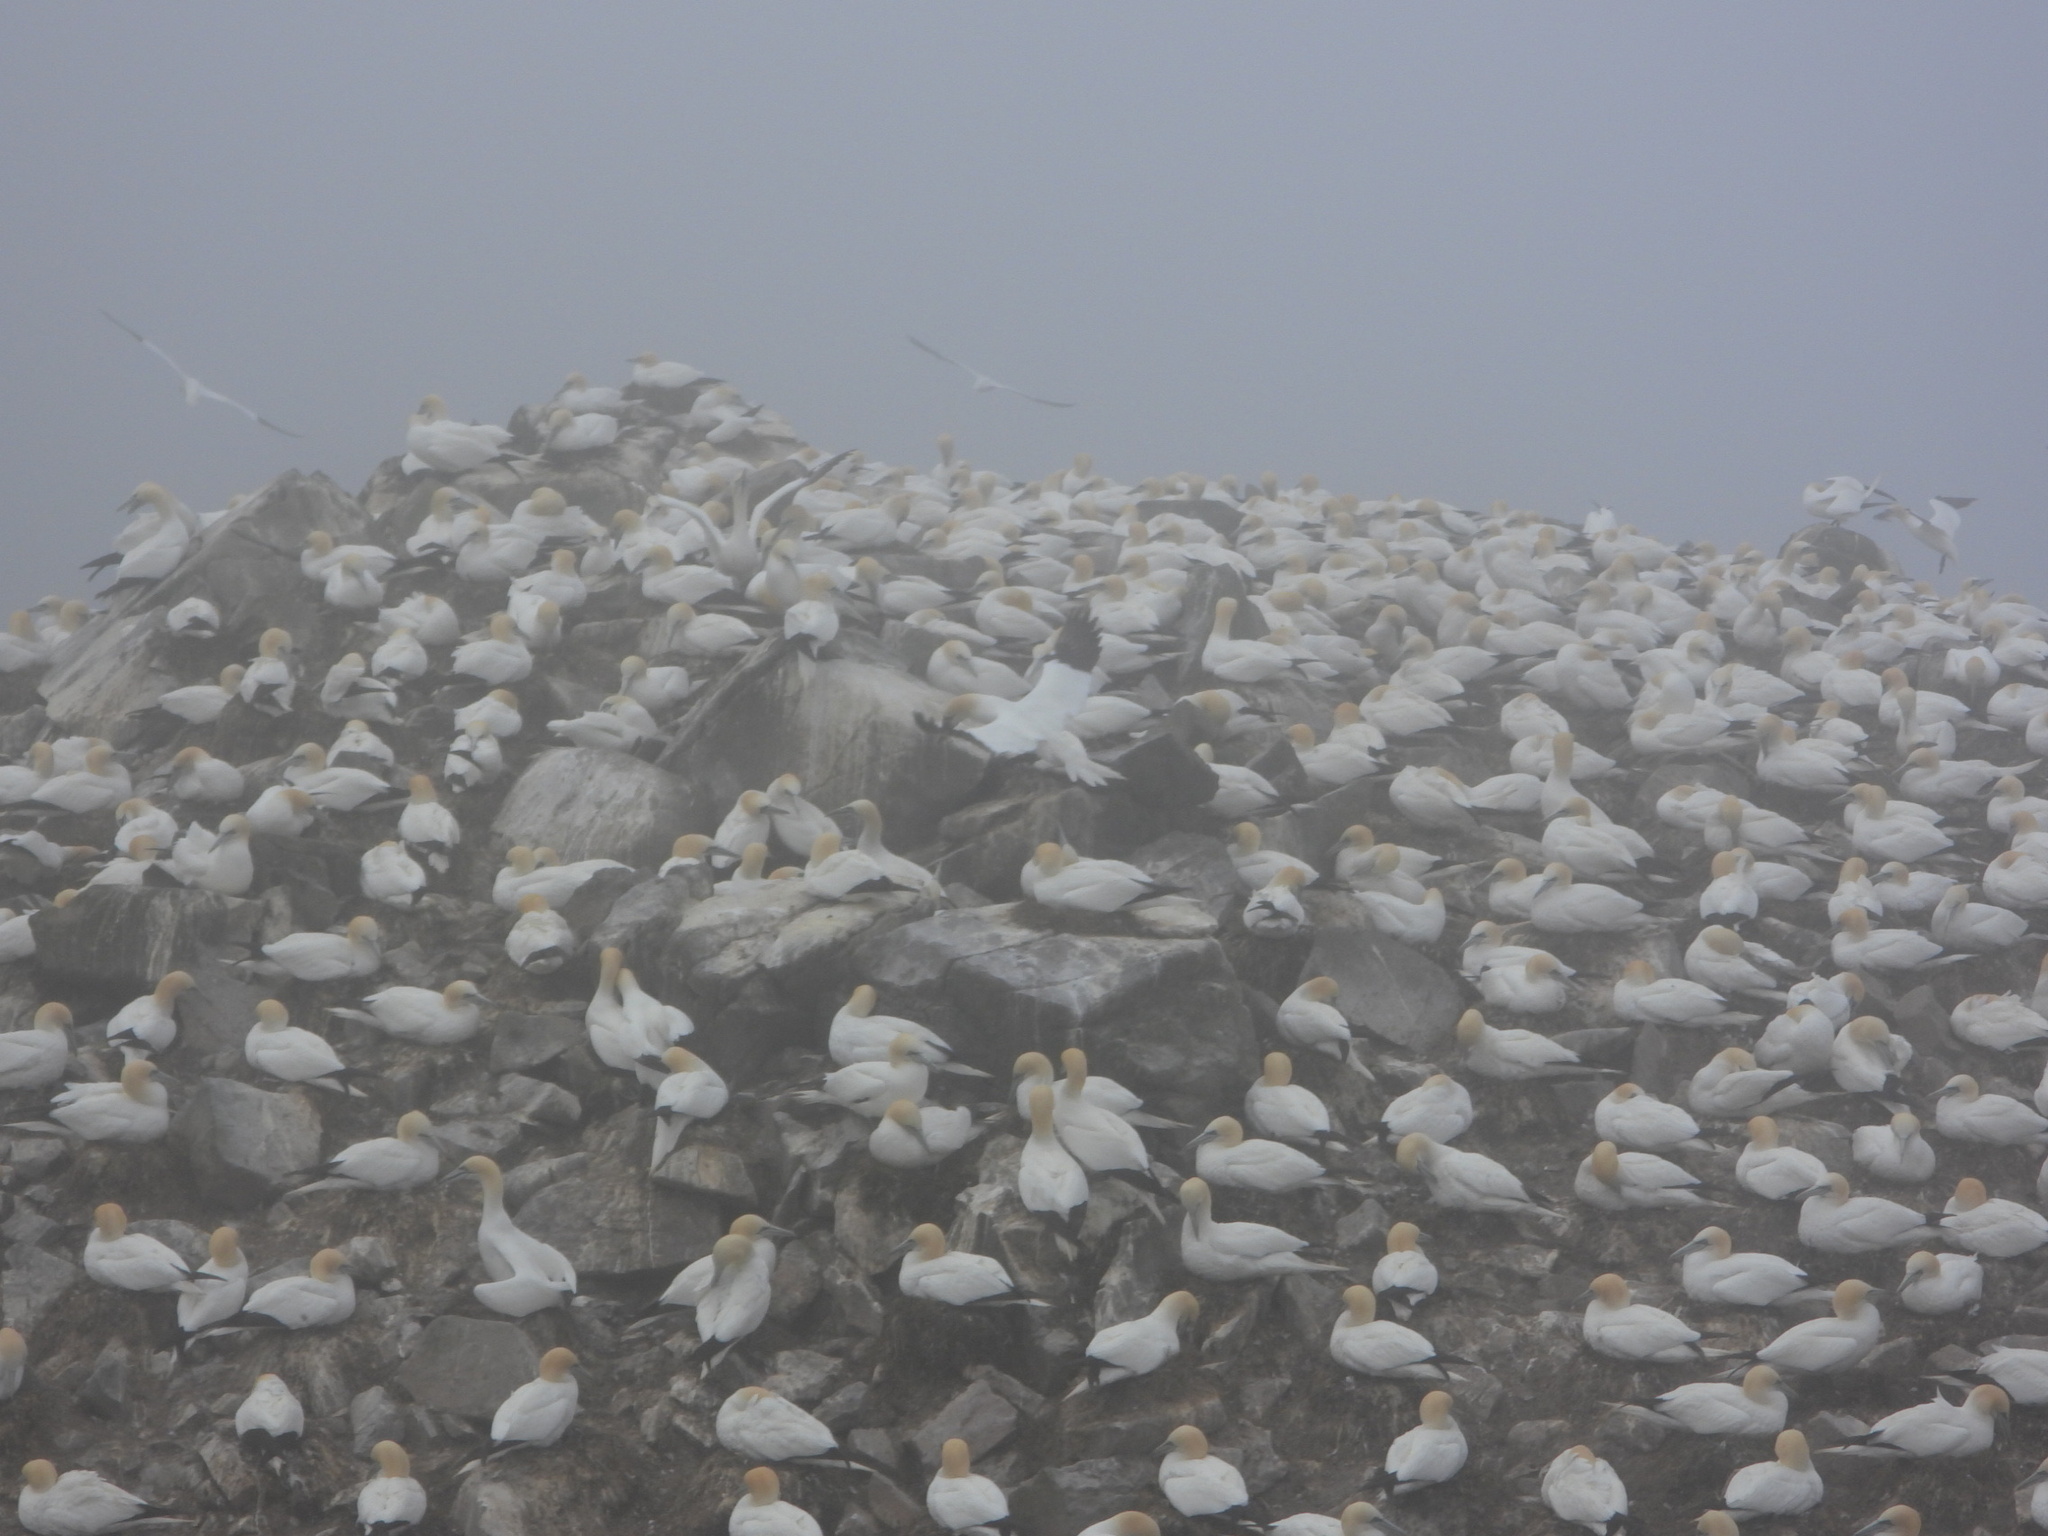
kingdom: Animalia
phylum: Chordata
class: Aves
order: Suliformes
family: Sulidae
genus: Morus
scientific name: Morus bassanus
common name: Northern gannet
